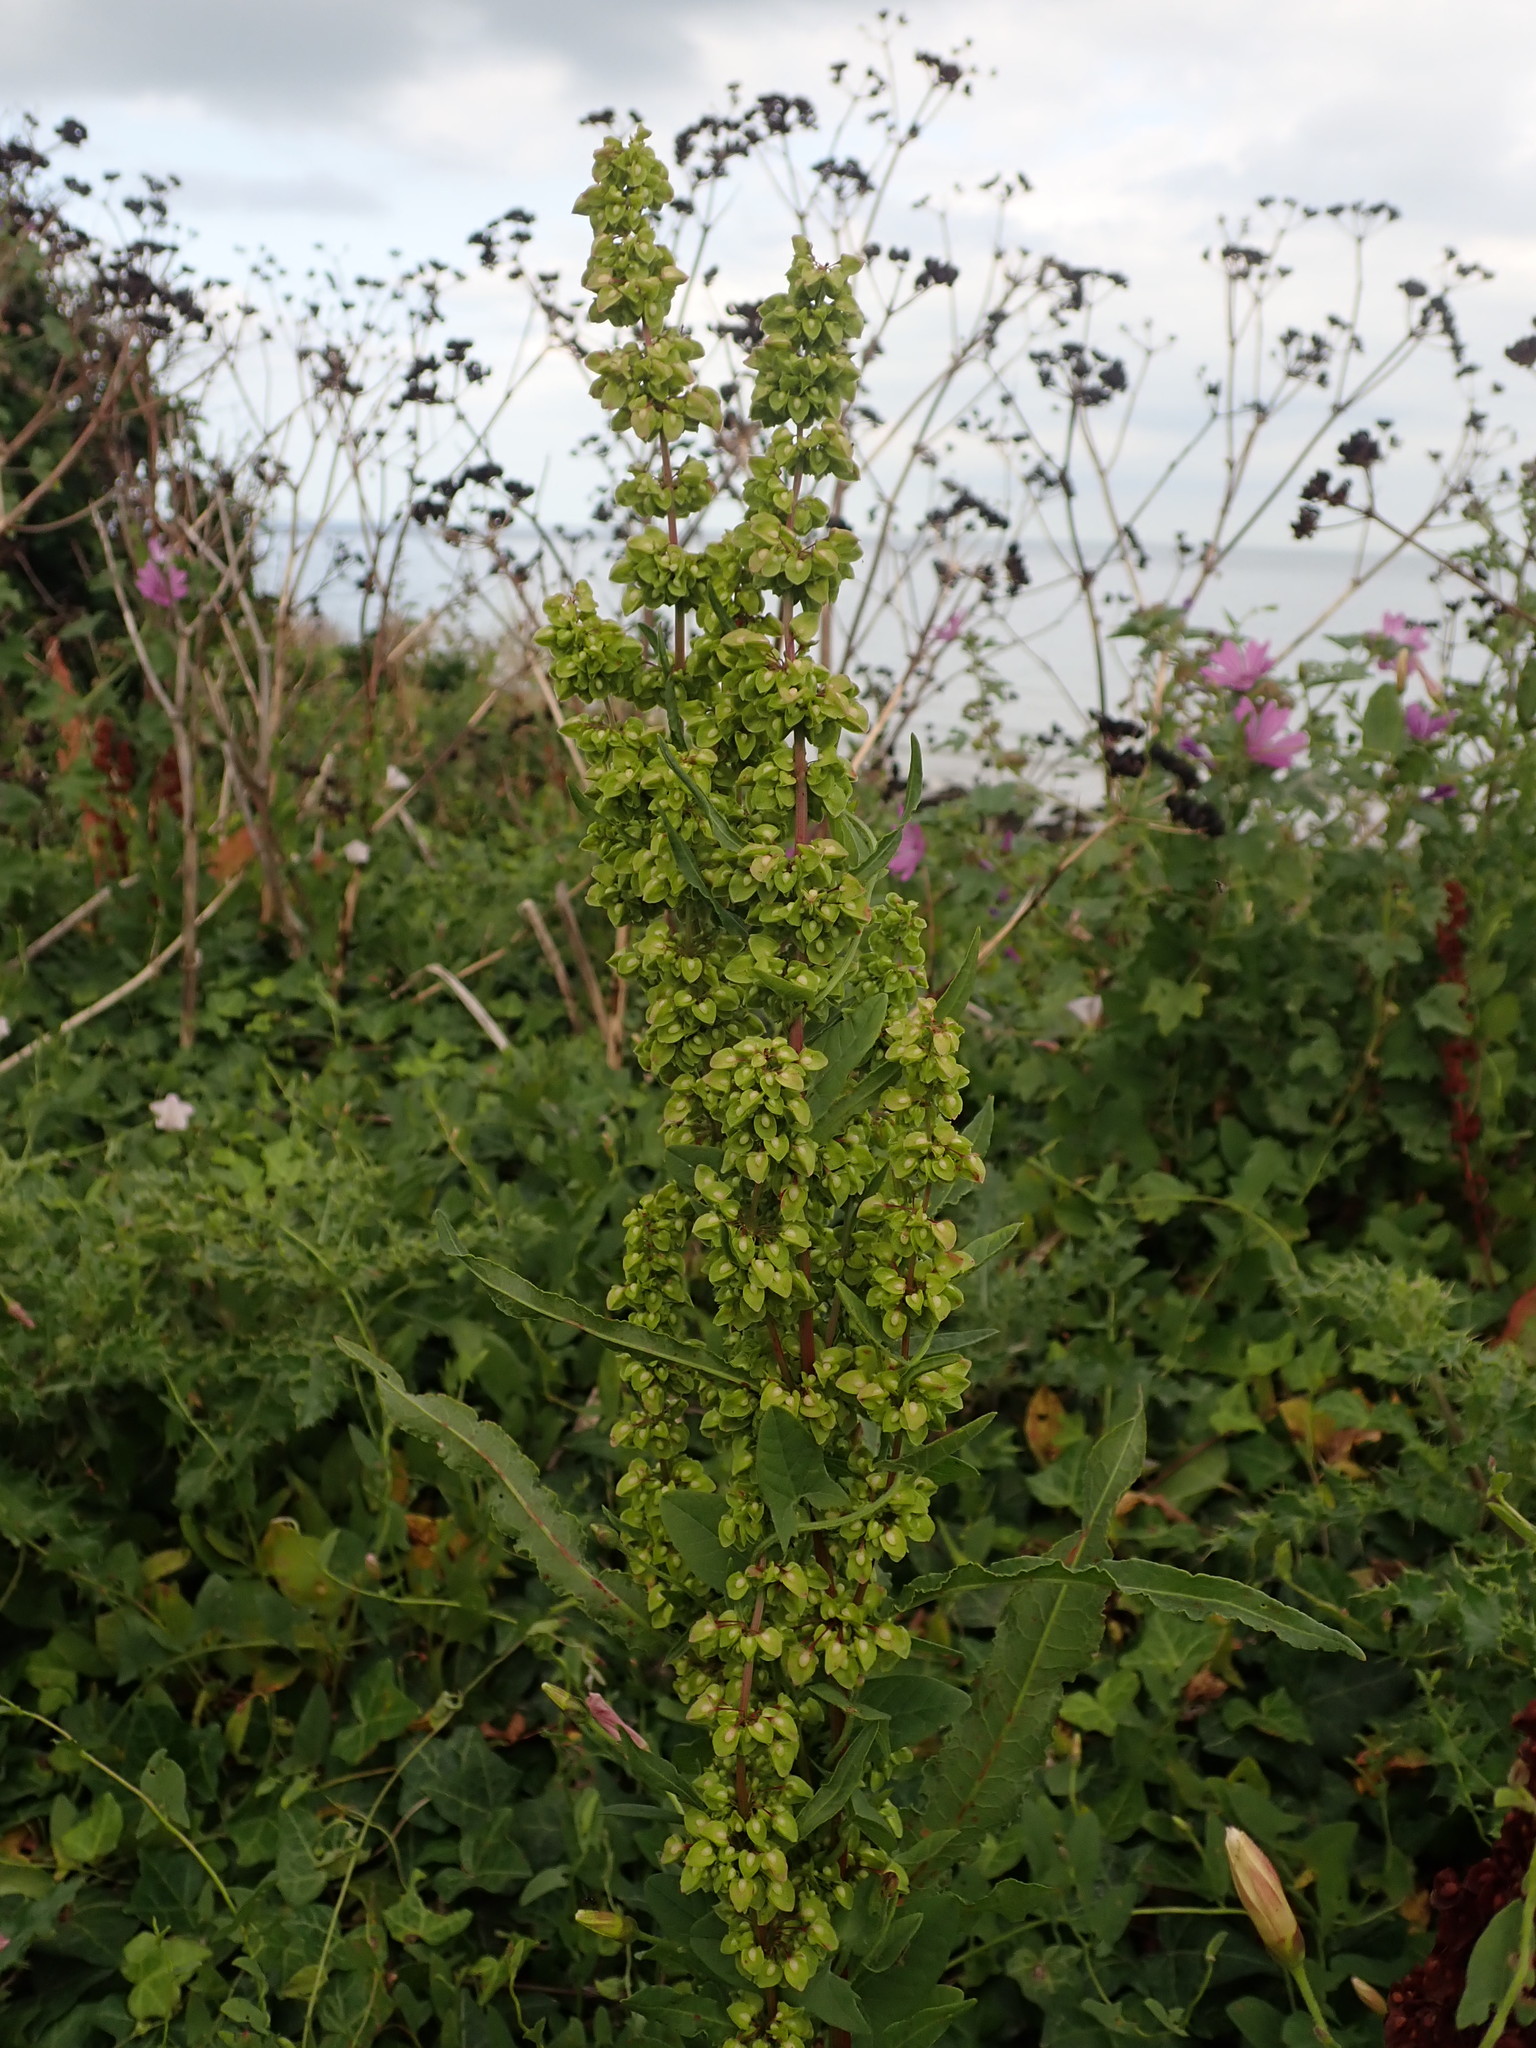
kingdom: Plantae
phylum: Tracheophyta
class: Magnoliopsida
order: Caryophyllales
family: Polygonaceae
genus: Rumex
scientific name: Rumex crispus
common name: Curled dock
